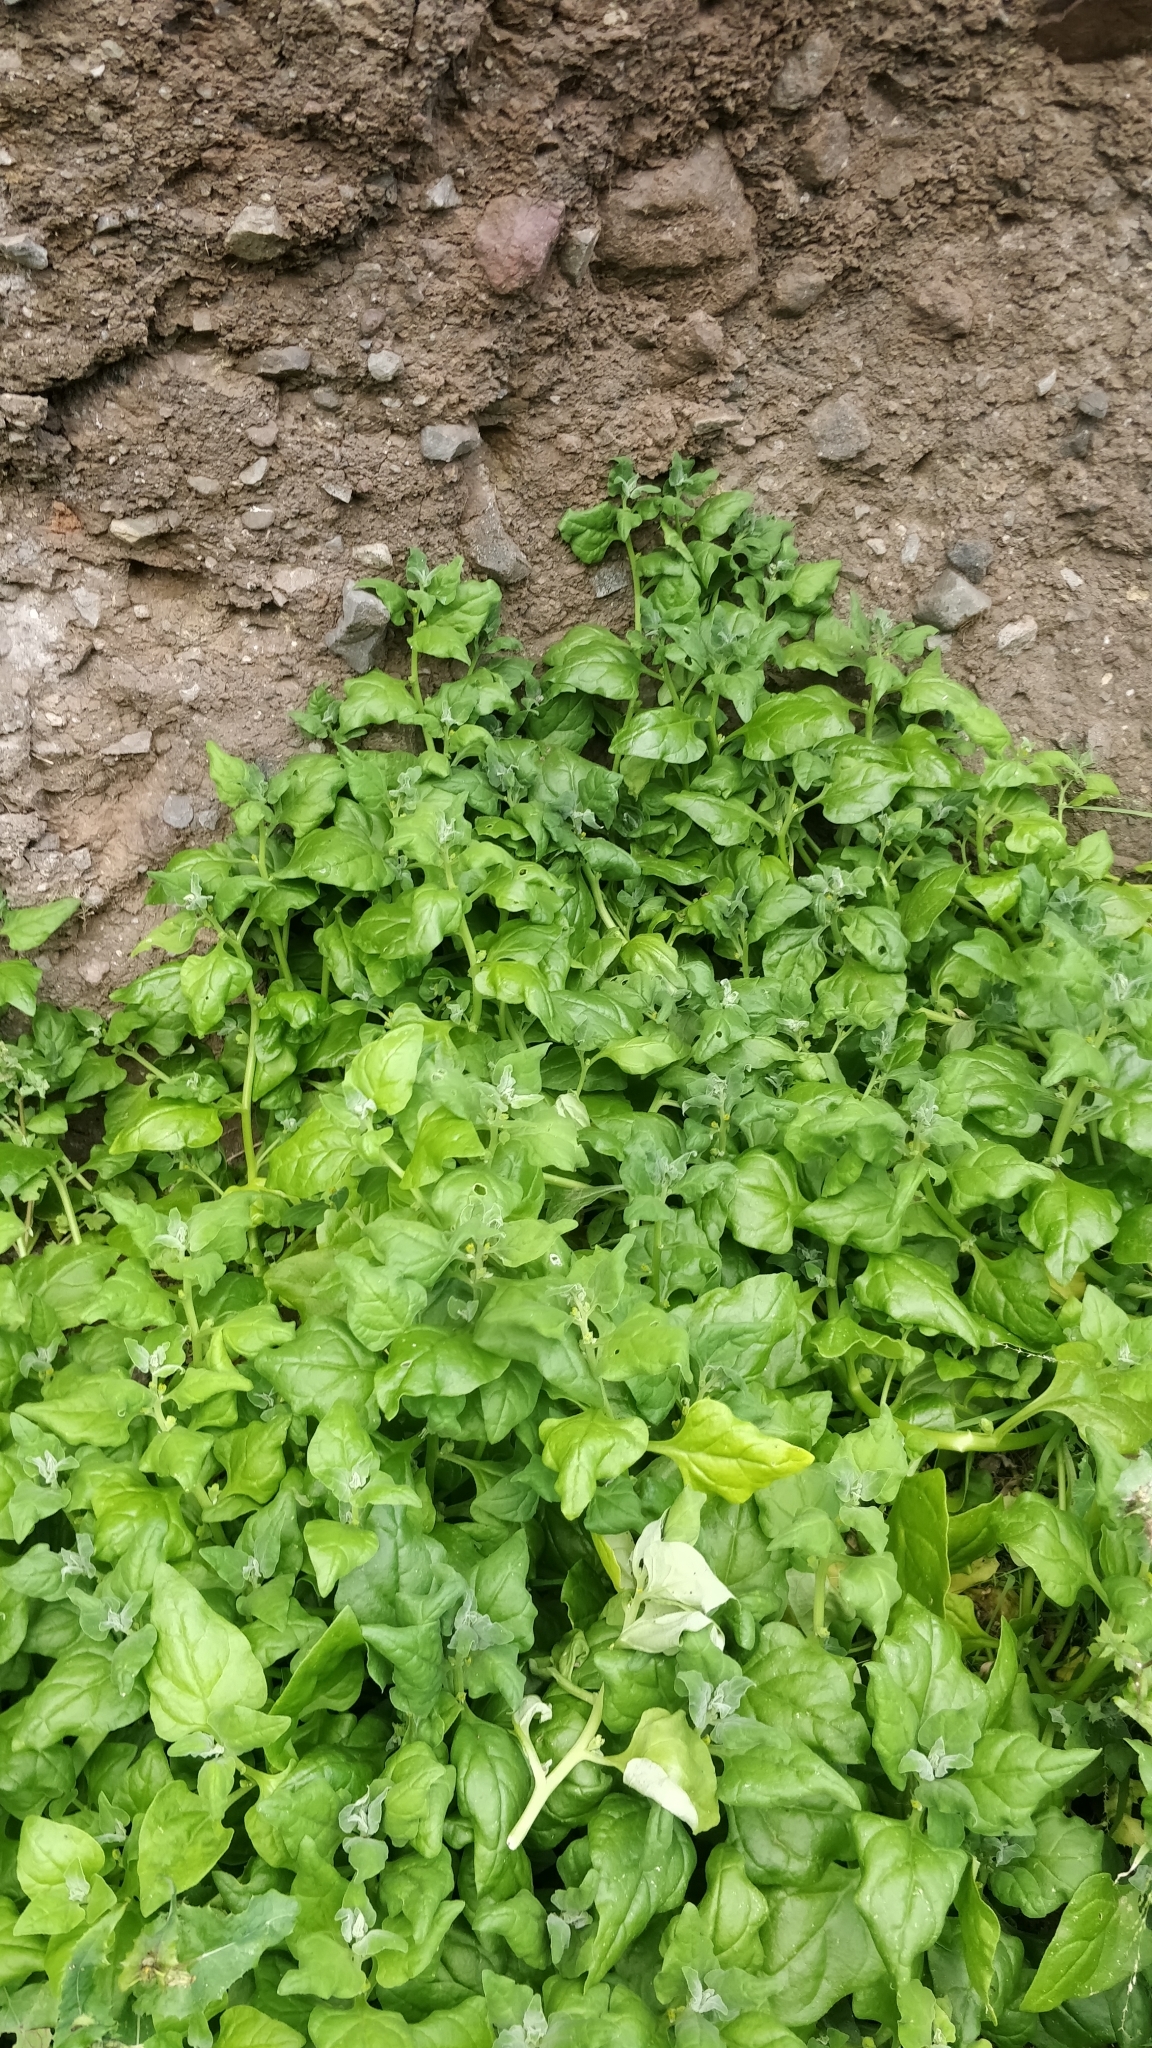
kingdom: Plantae
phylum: Tracheophyta
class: Magnoliopsida
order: Caryophyllales
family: Aizoaceae
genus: Tetragonia
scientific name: Tetragonia tetragonoides
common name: New zealand-spinach
